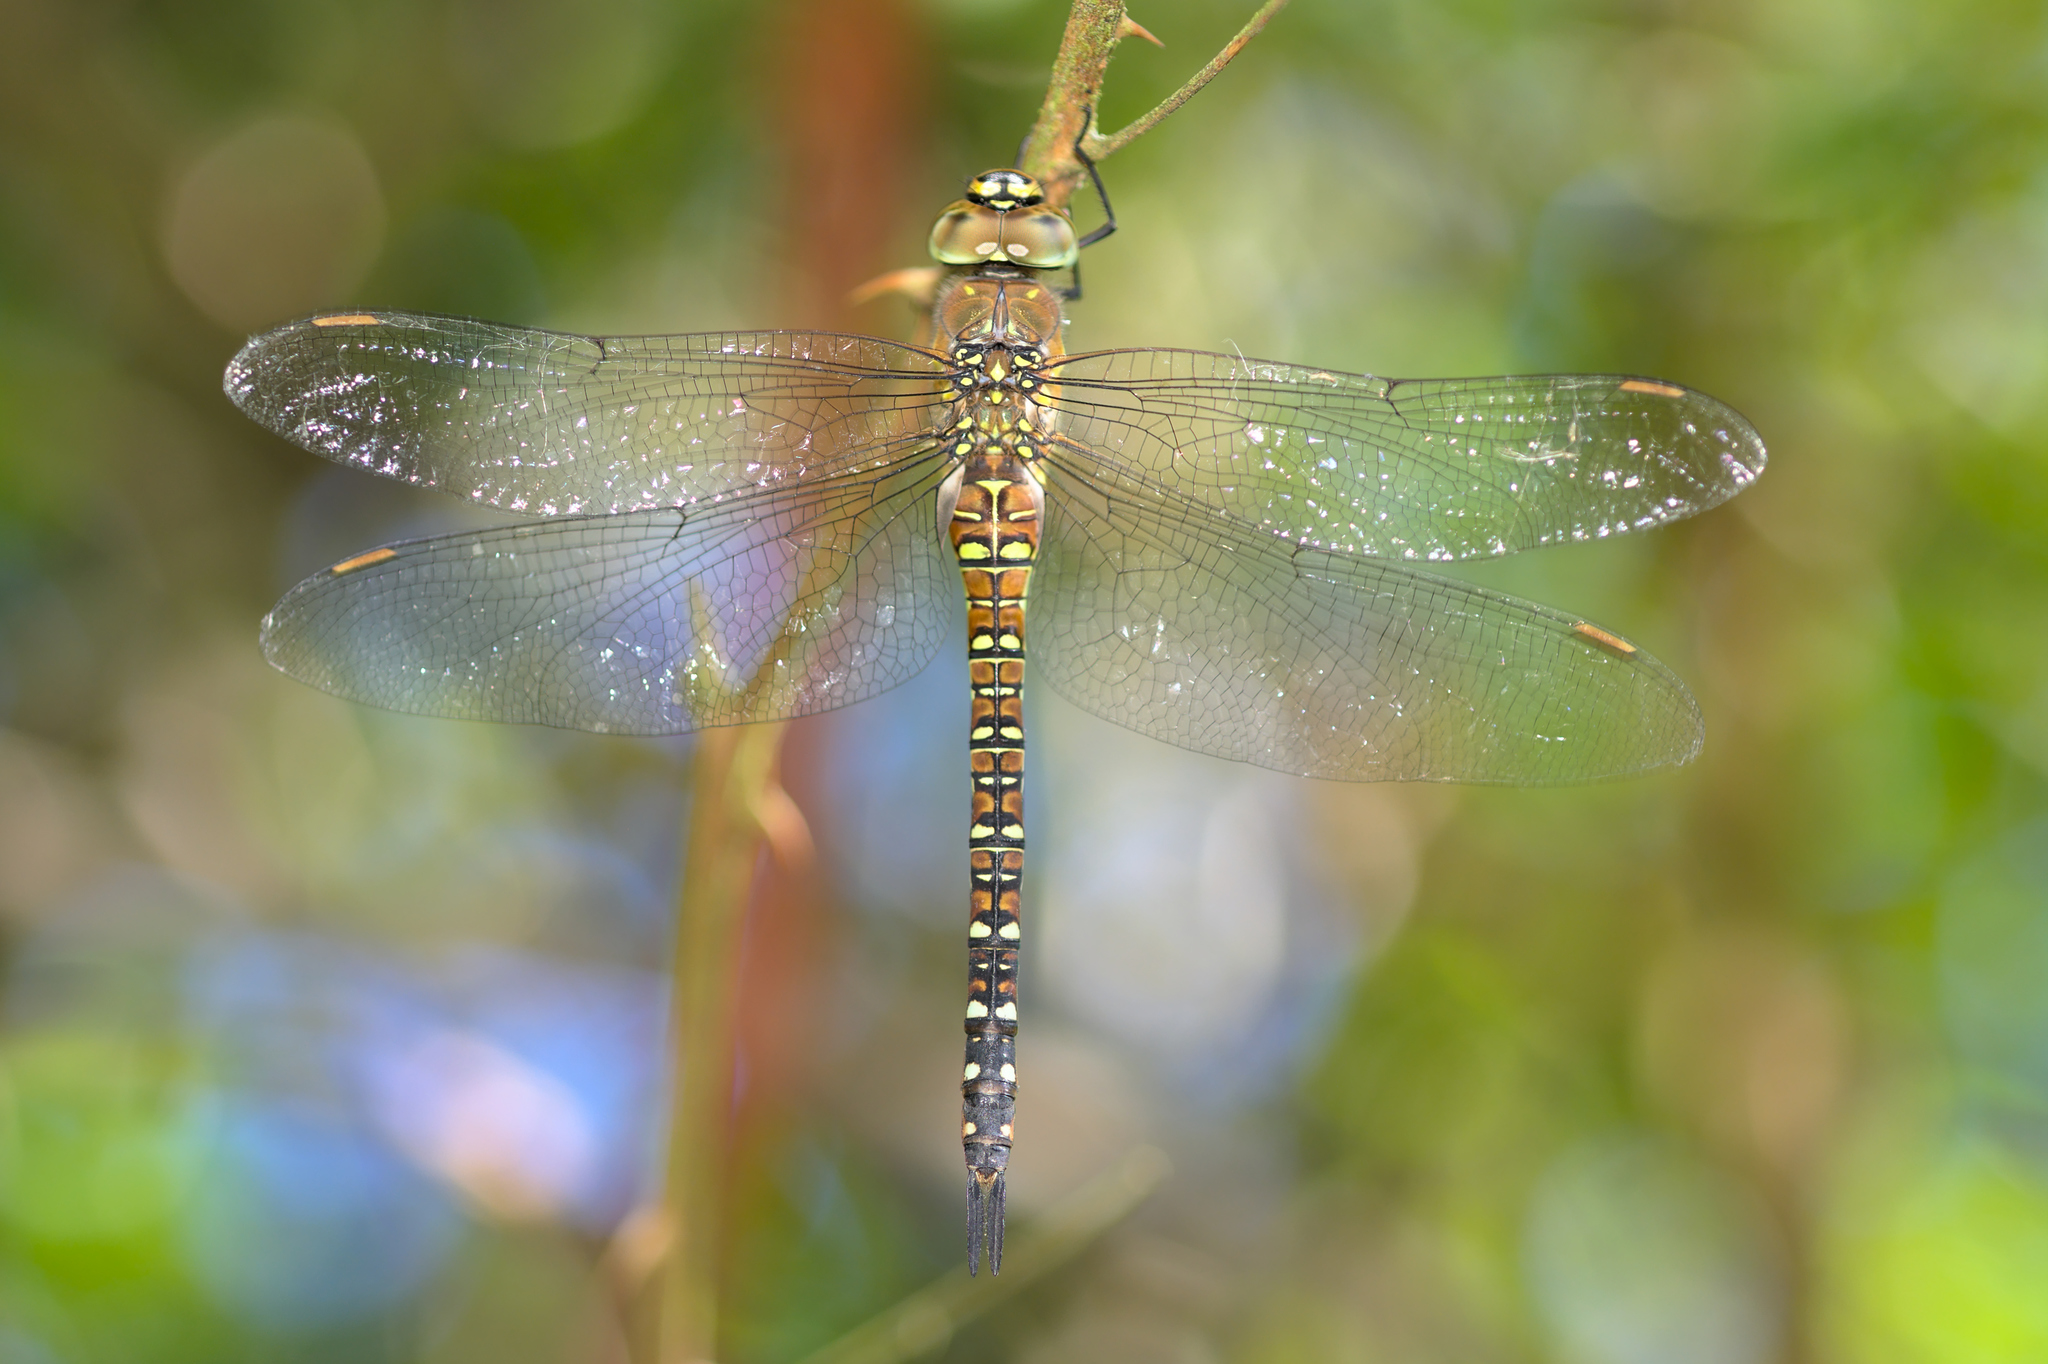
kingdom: Animalia
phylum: Arthropoda
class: Insecta
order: Odonata
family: Aeshnidae
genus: Aeshna
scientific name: Aeshna mixta
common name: Migrant hawker
